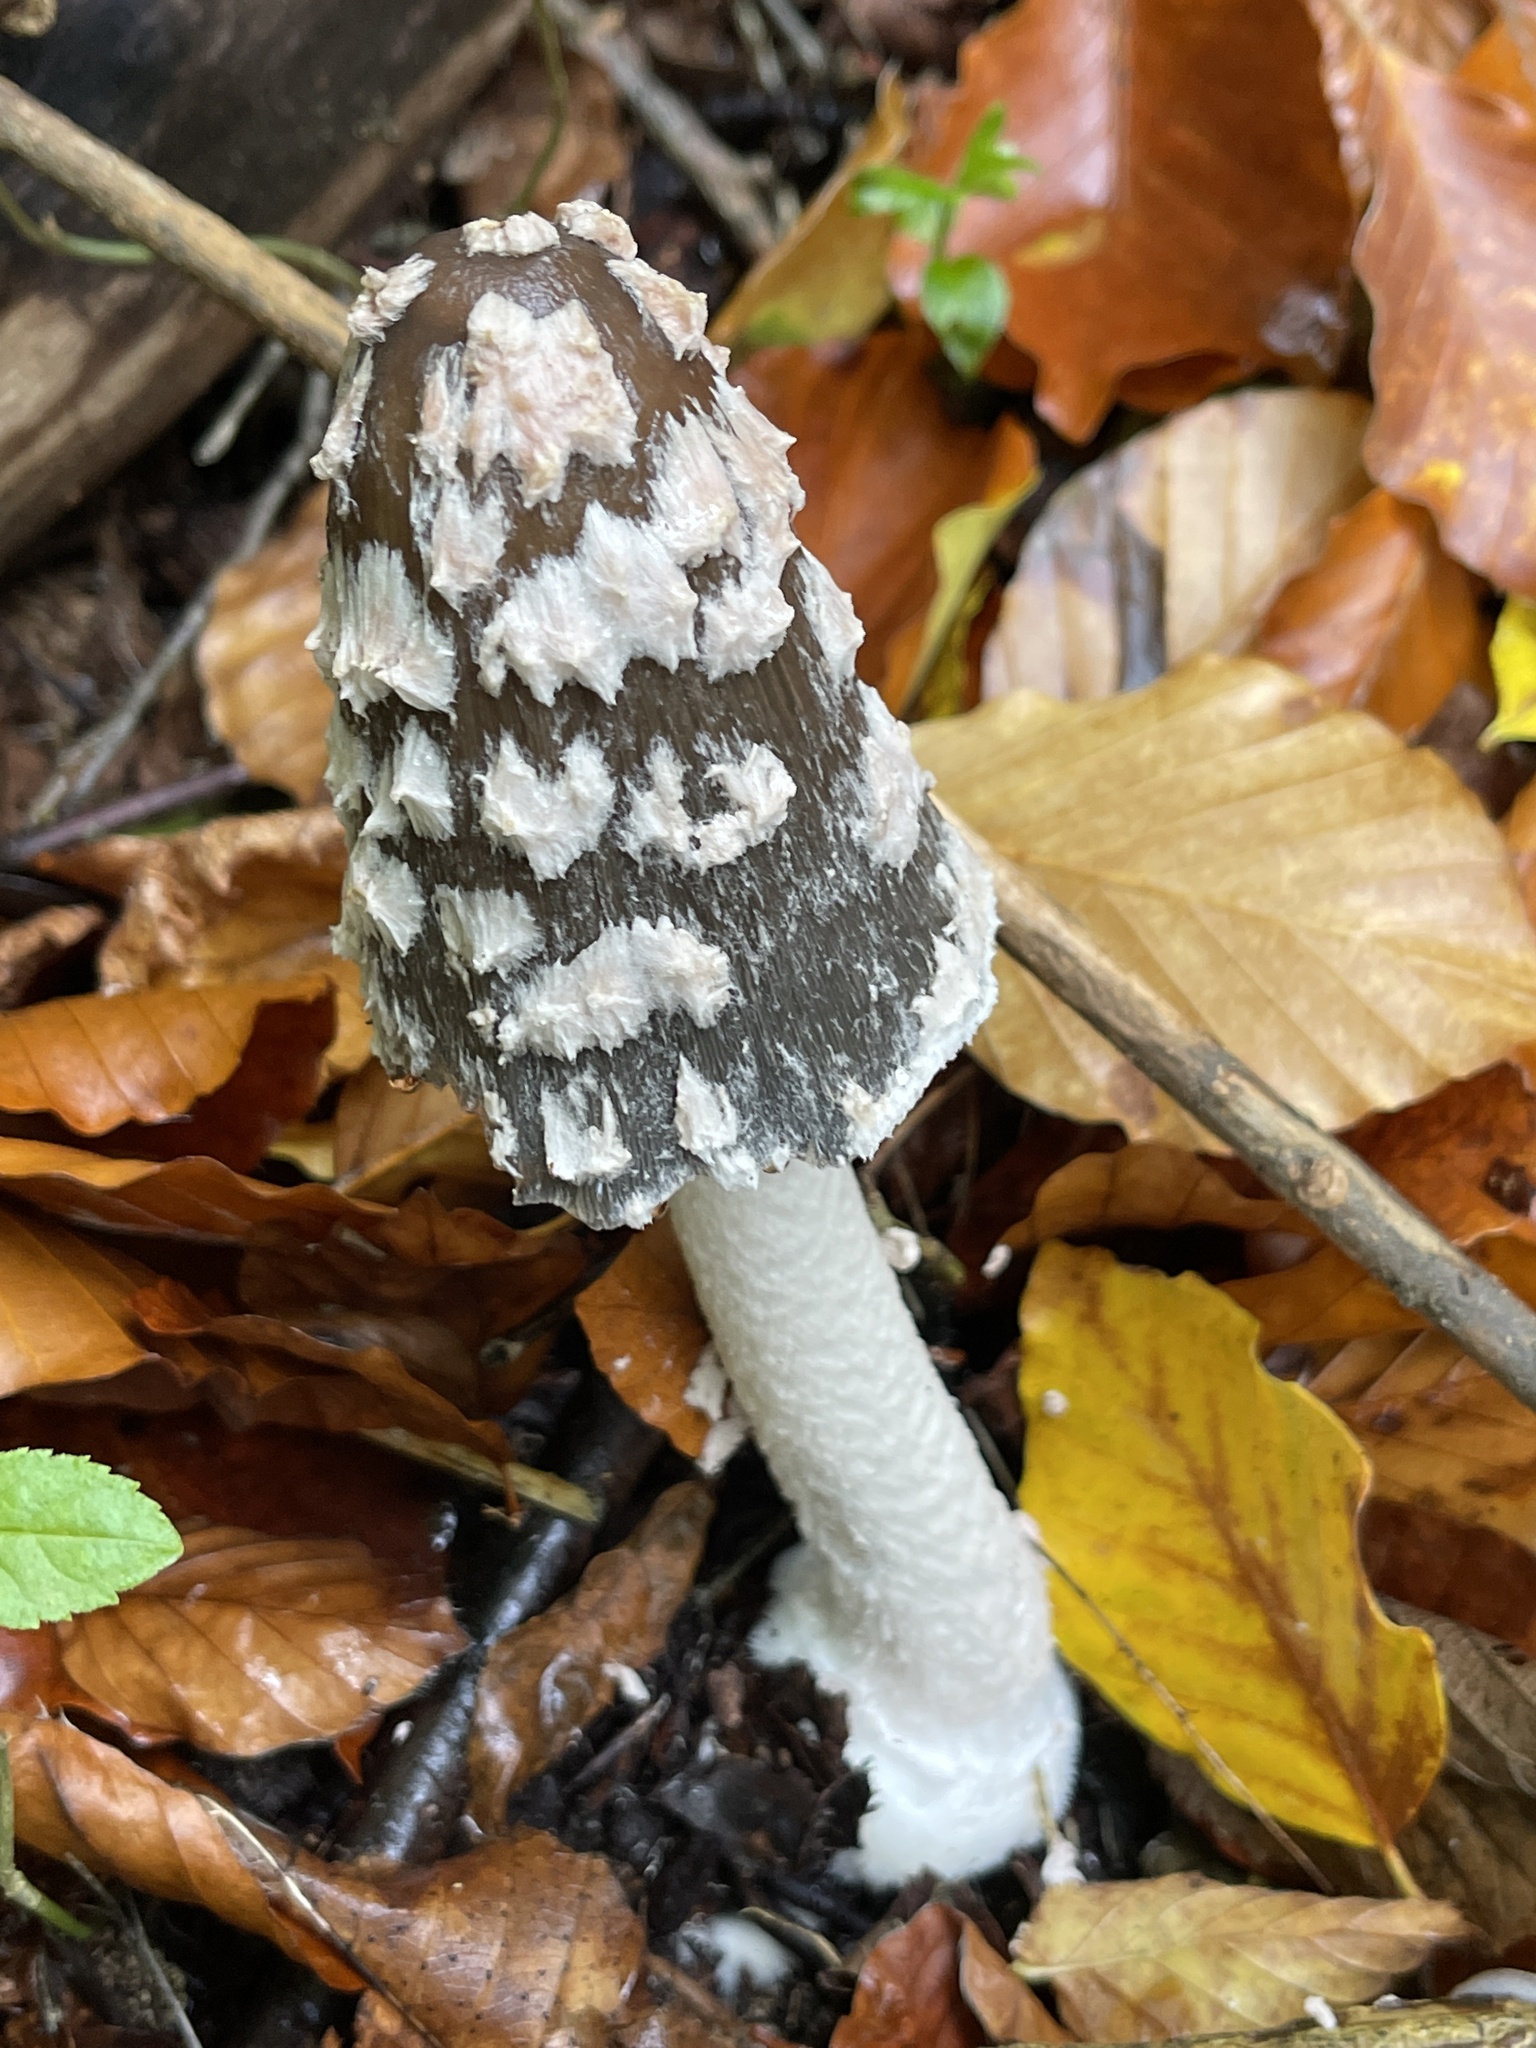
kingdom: Fungi
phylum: Basidiomycota
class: Agaricomycetes
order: Agaricales
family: Psathyrellaceae
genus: Coprinopsis
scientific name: Coprinopsis picacea
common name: Magpie inkcap
